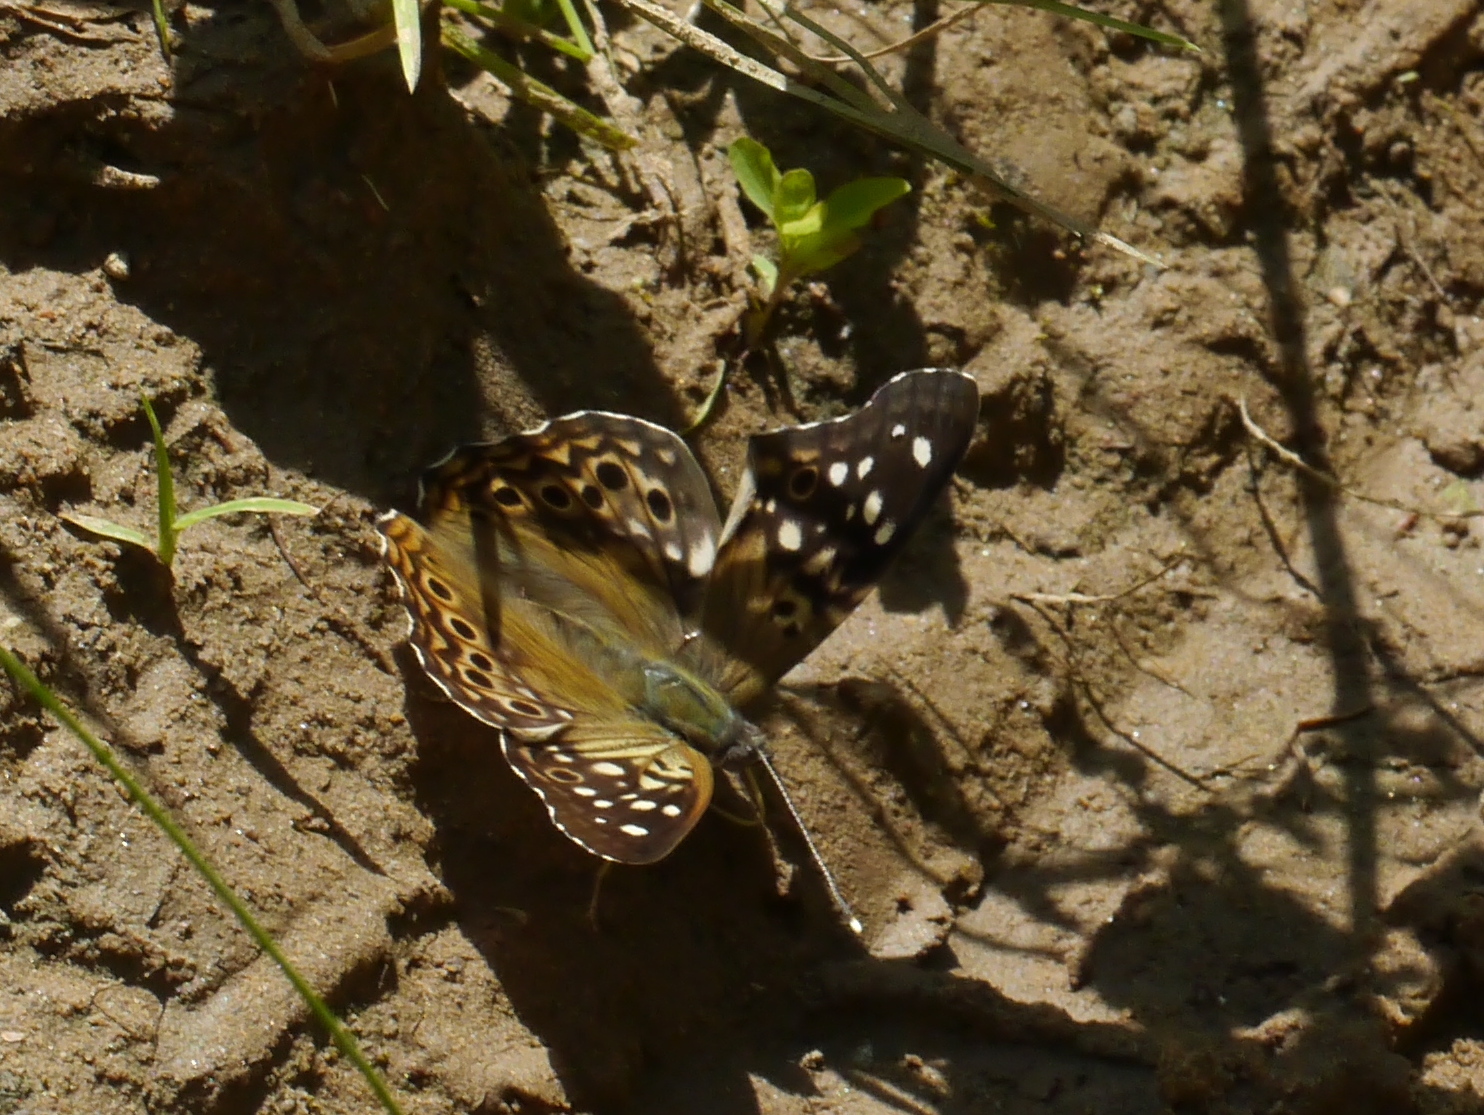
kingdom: Animalia
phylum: Arthropoda
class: Insecta
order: Lepidoptera
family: Nymphalidae
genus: Asterocampa
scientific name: Asterocampa celtis
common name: Hackberry emperor
